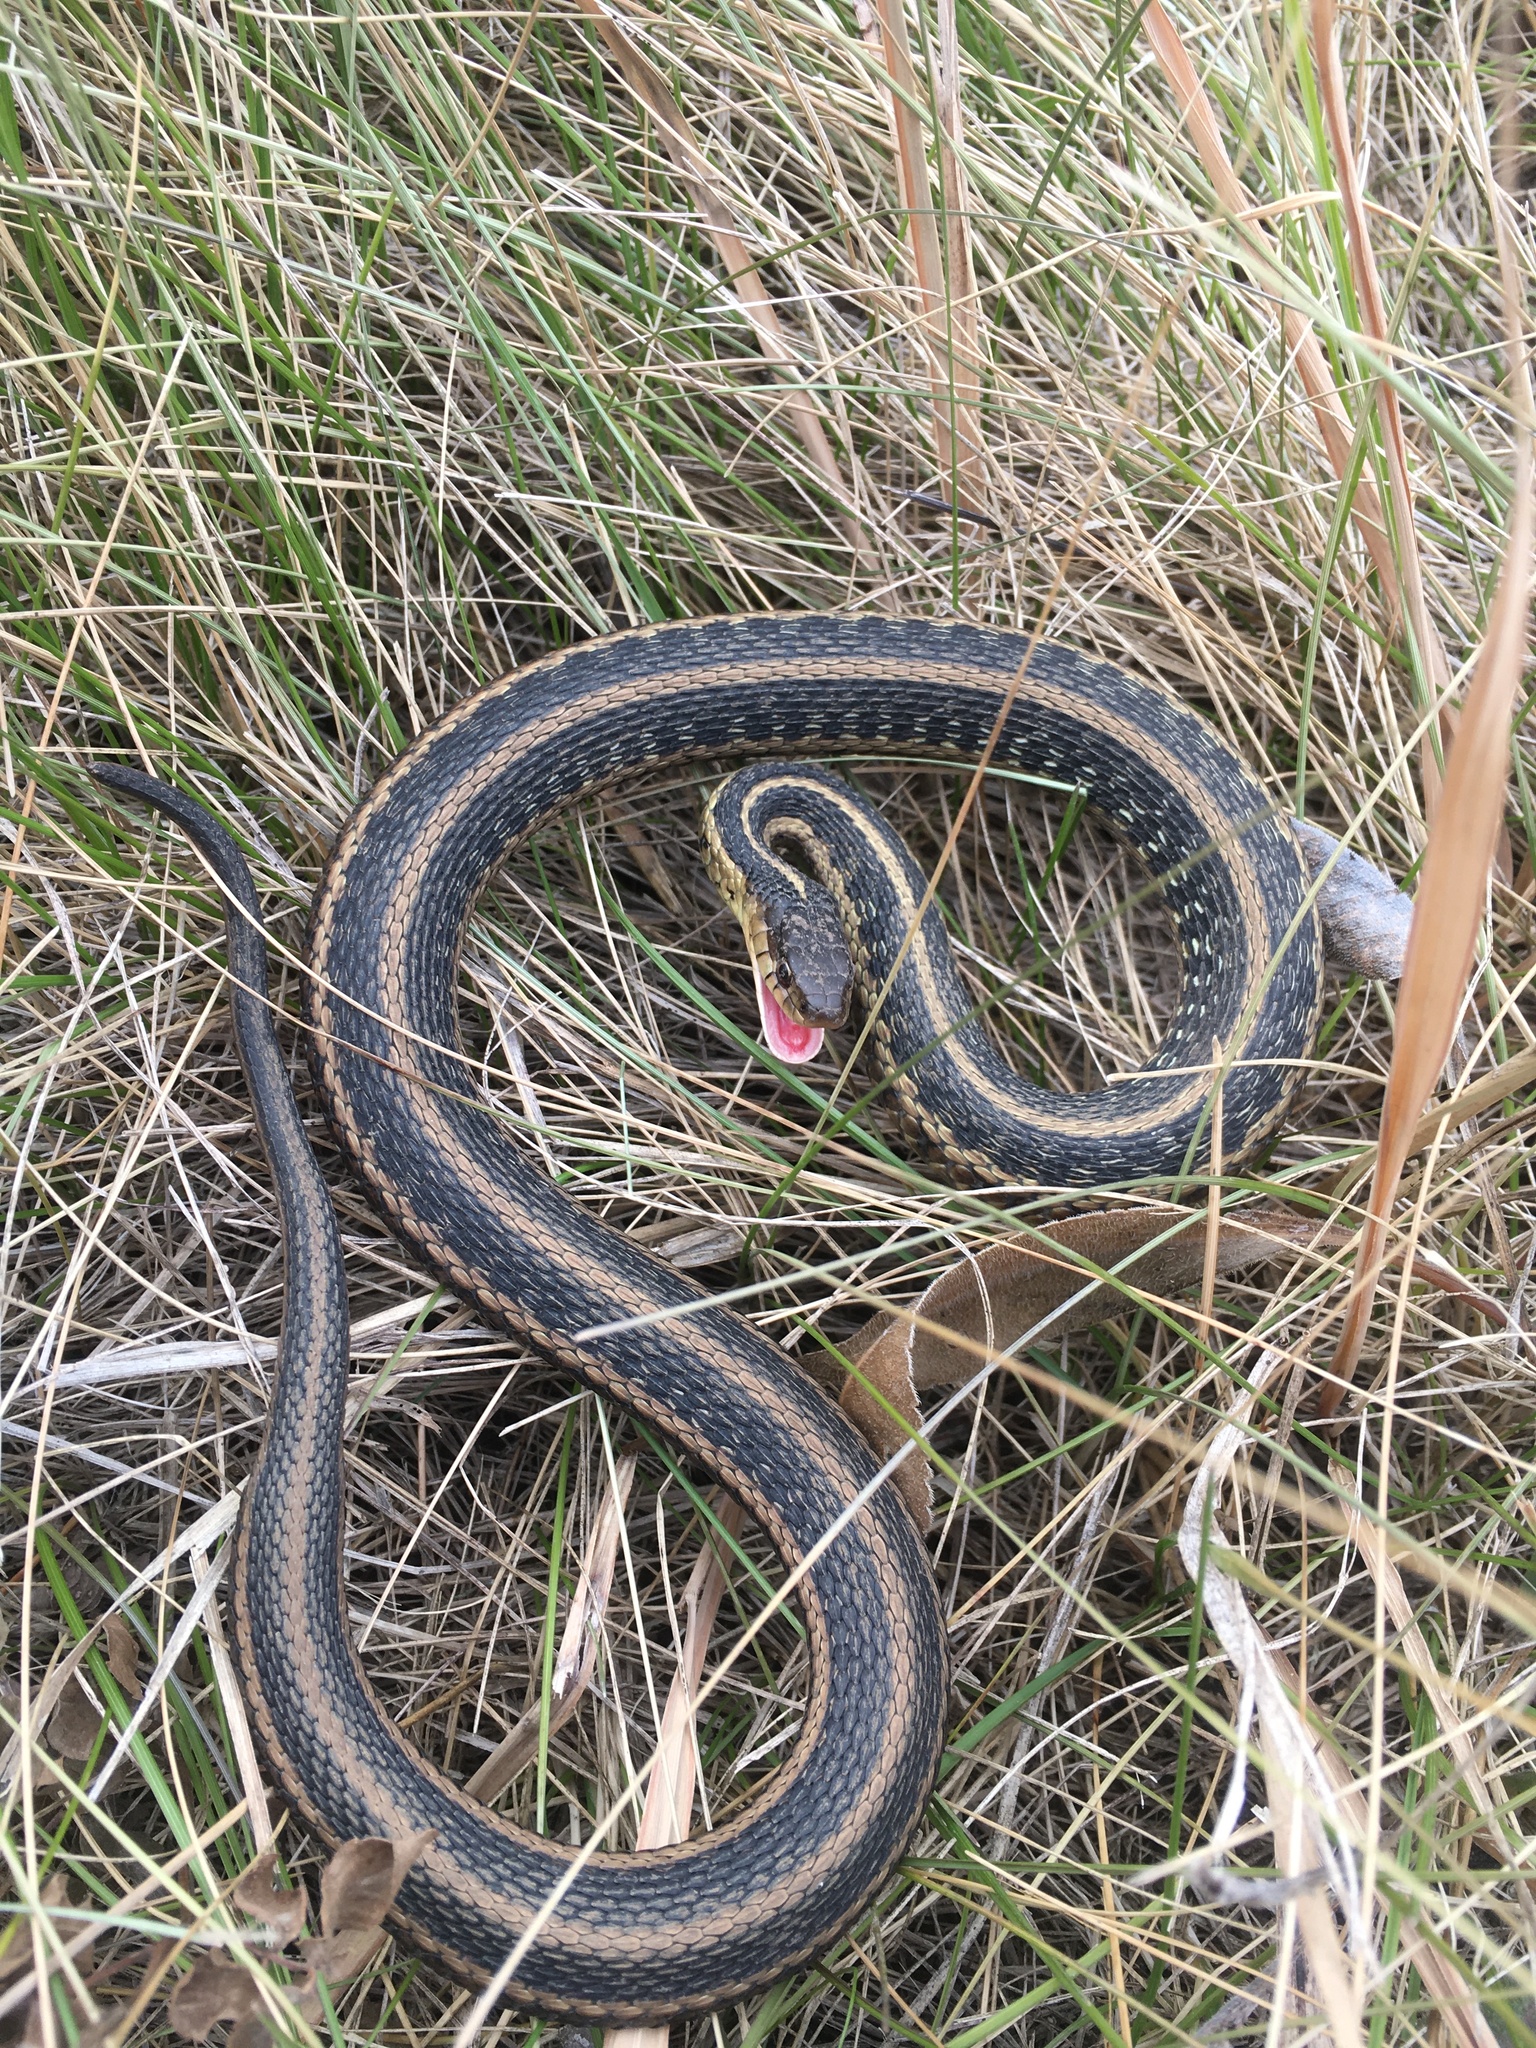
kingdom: Animalia
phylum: Chordata
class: Squamata
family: Colubridae
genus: Thamnophis
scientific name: Thamnophis sirtalis
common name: Common garter snake
